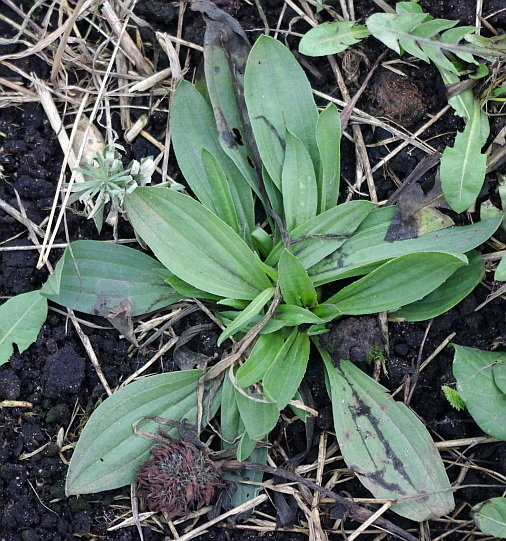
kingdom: Plantae
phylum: Tracheophyta
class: Magnoliopsida
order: Lamiales
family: Plantaginaceae
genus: Plantago
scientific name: Plantago media
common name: Hoary plantain
